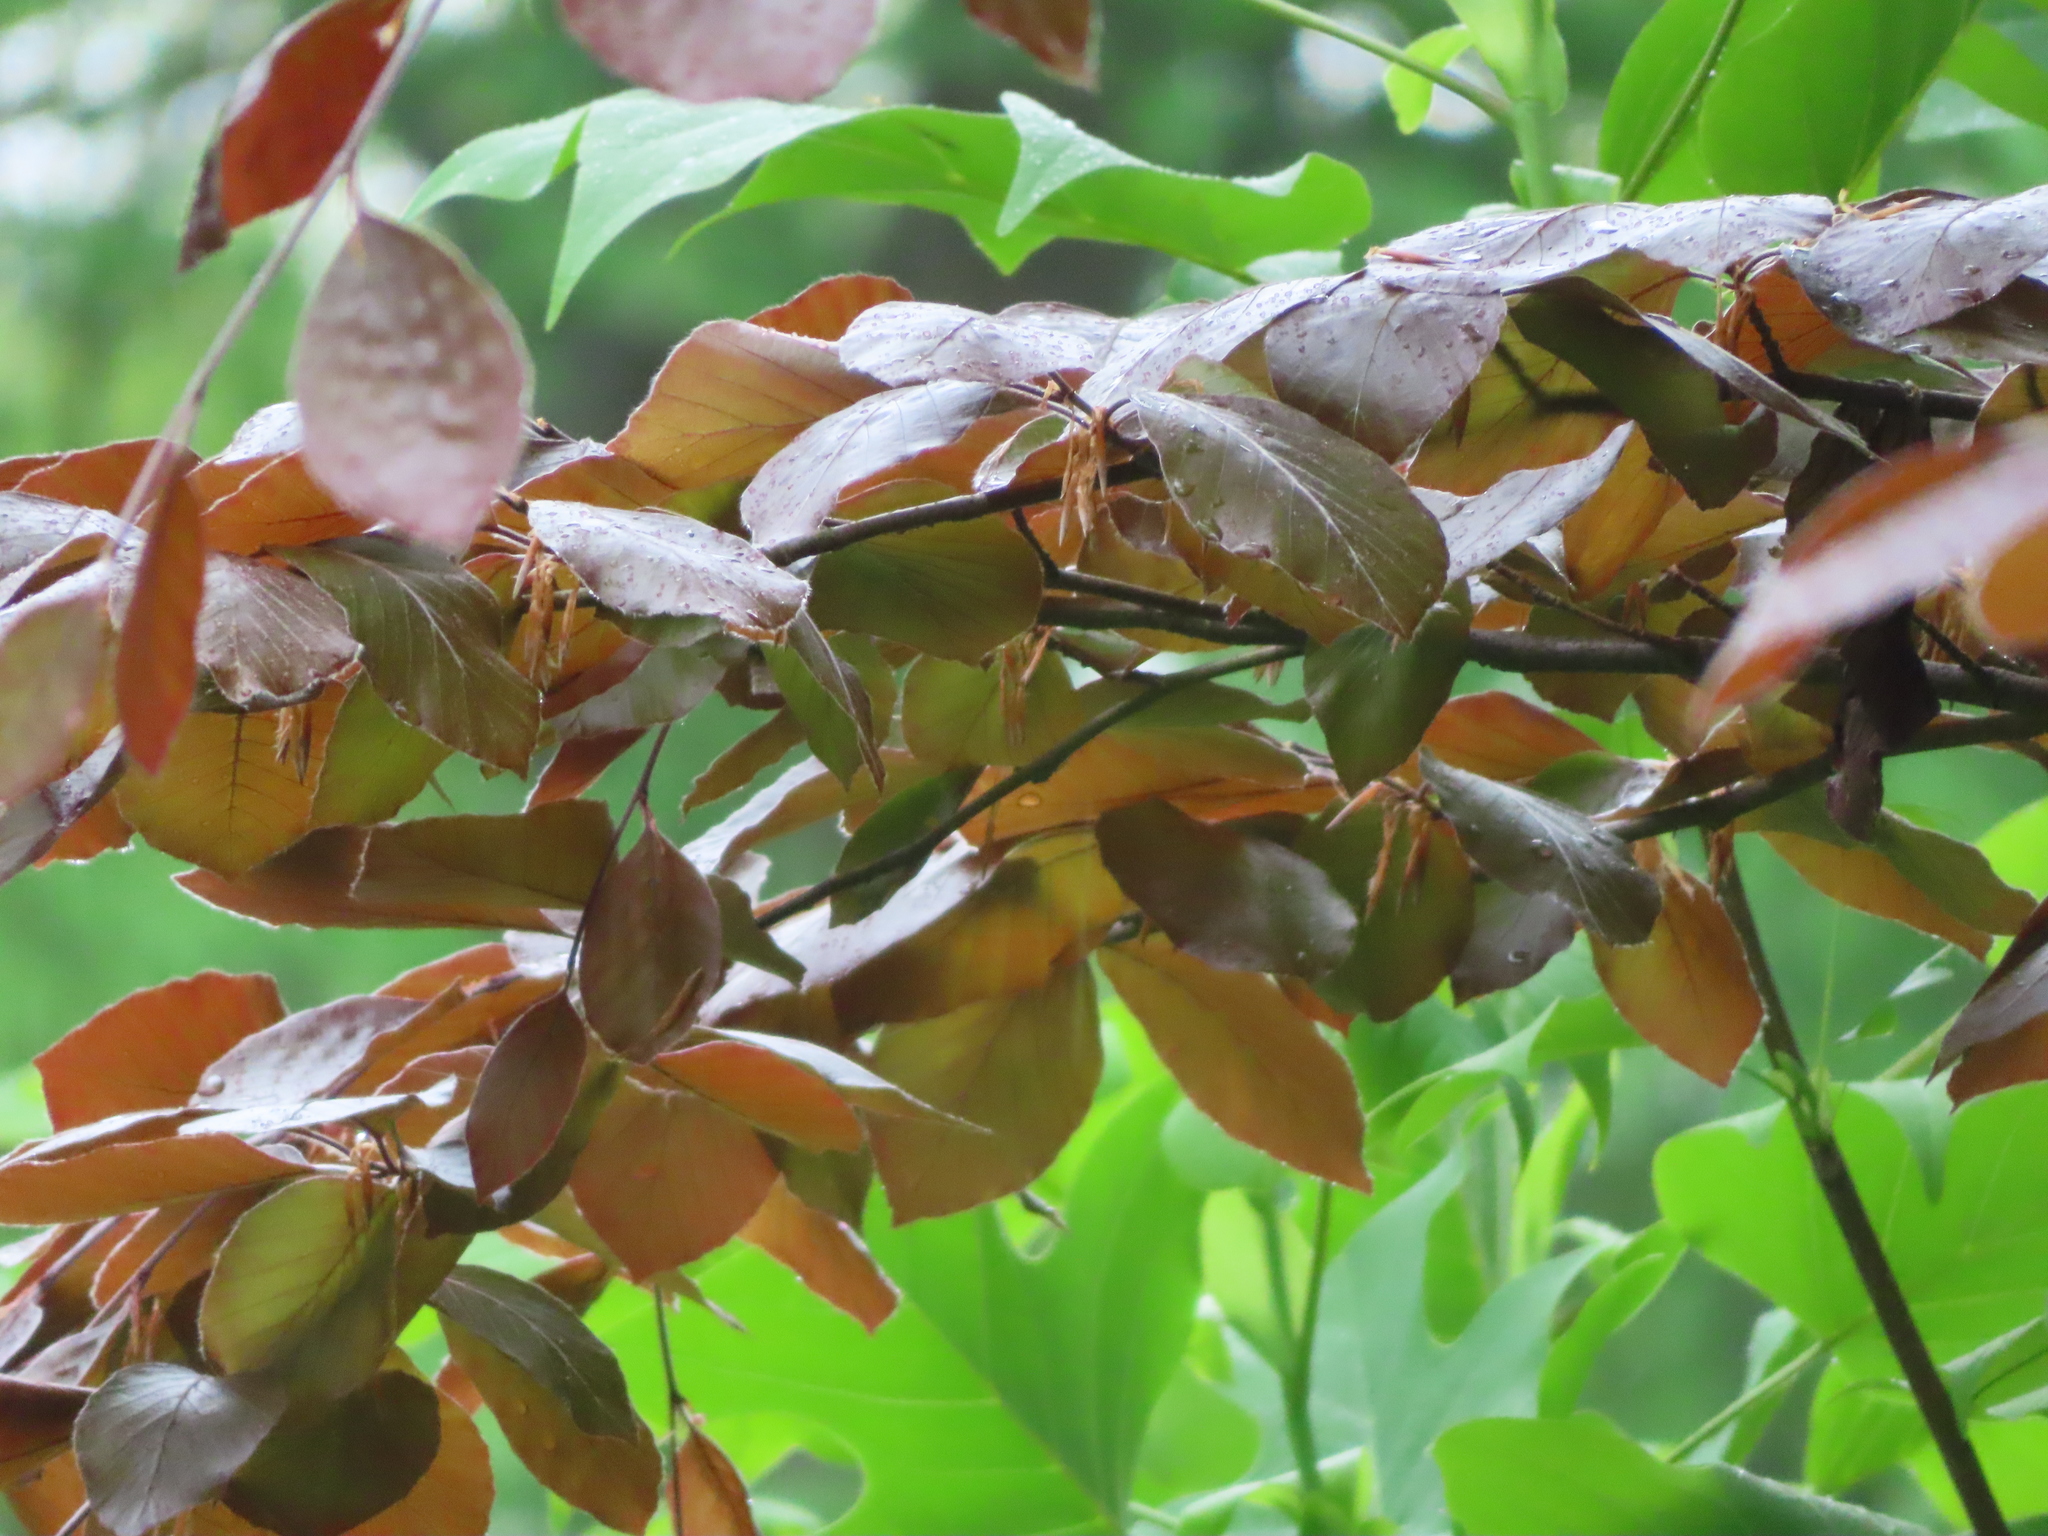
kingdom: Plantae
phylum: Tracheophyta
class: Magnoliopsida
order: Fagales
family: Fagaceae
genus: Fagus
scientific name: Fagus sylvatica
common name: Beech
